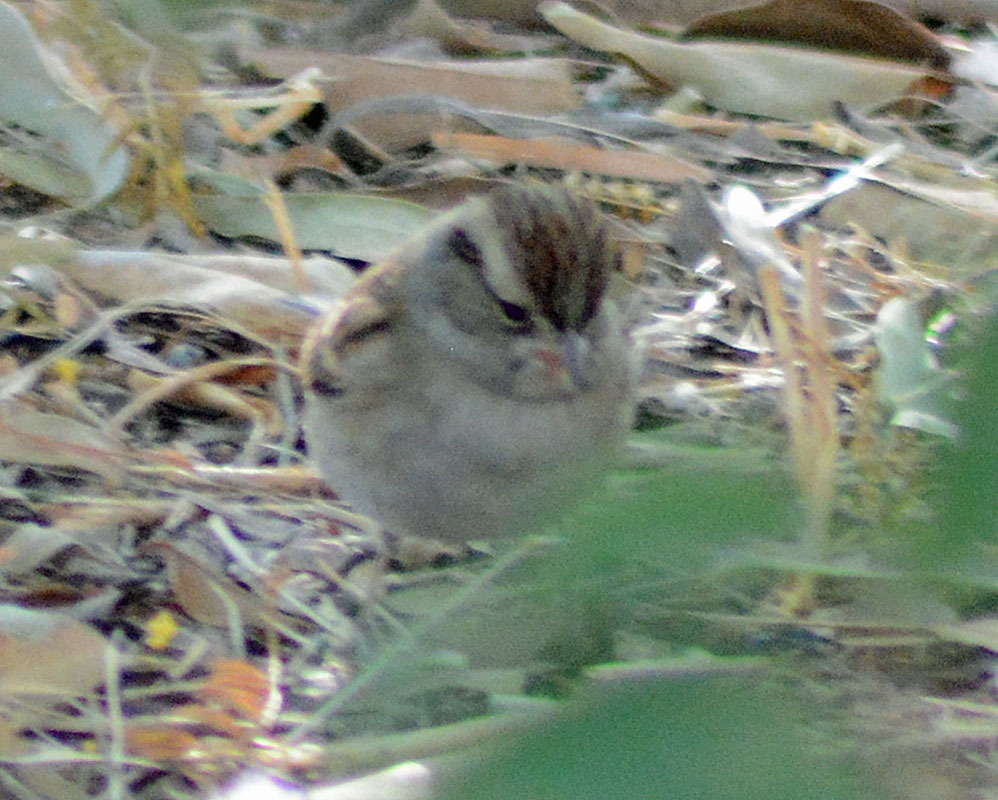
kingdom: Animalia
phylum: Chordata
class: Aves
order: Passeriformes
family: Passerellidae
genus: Spizella
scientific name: Spizella passerina
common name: Chipping sparrow
